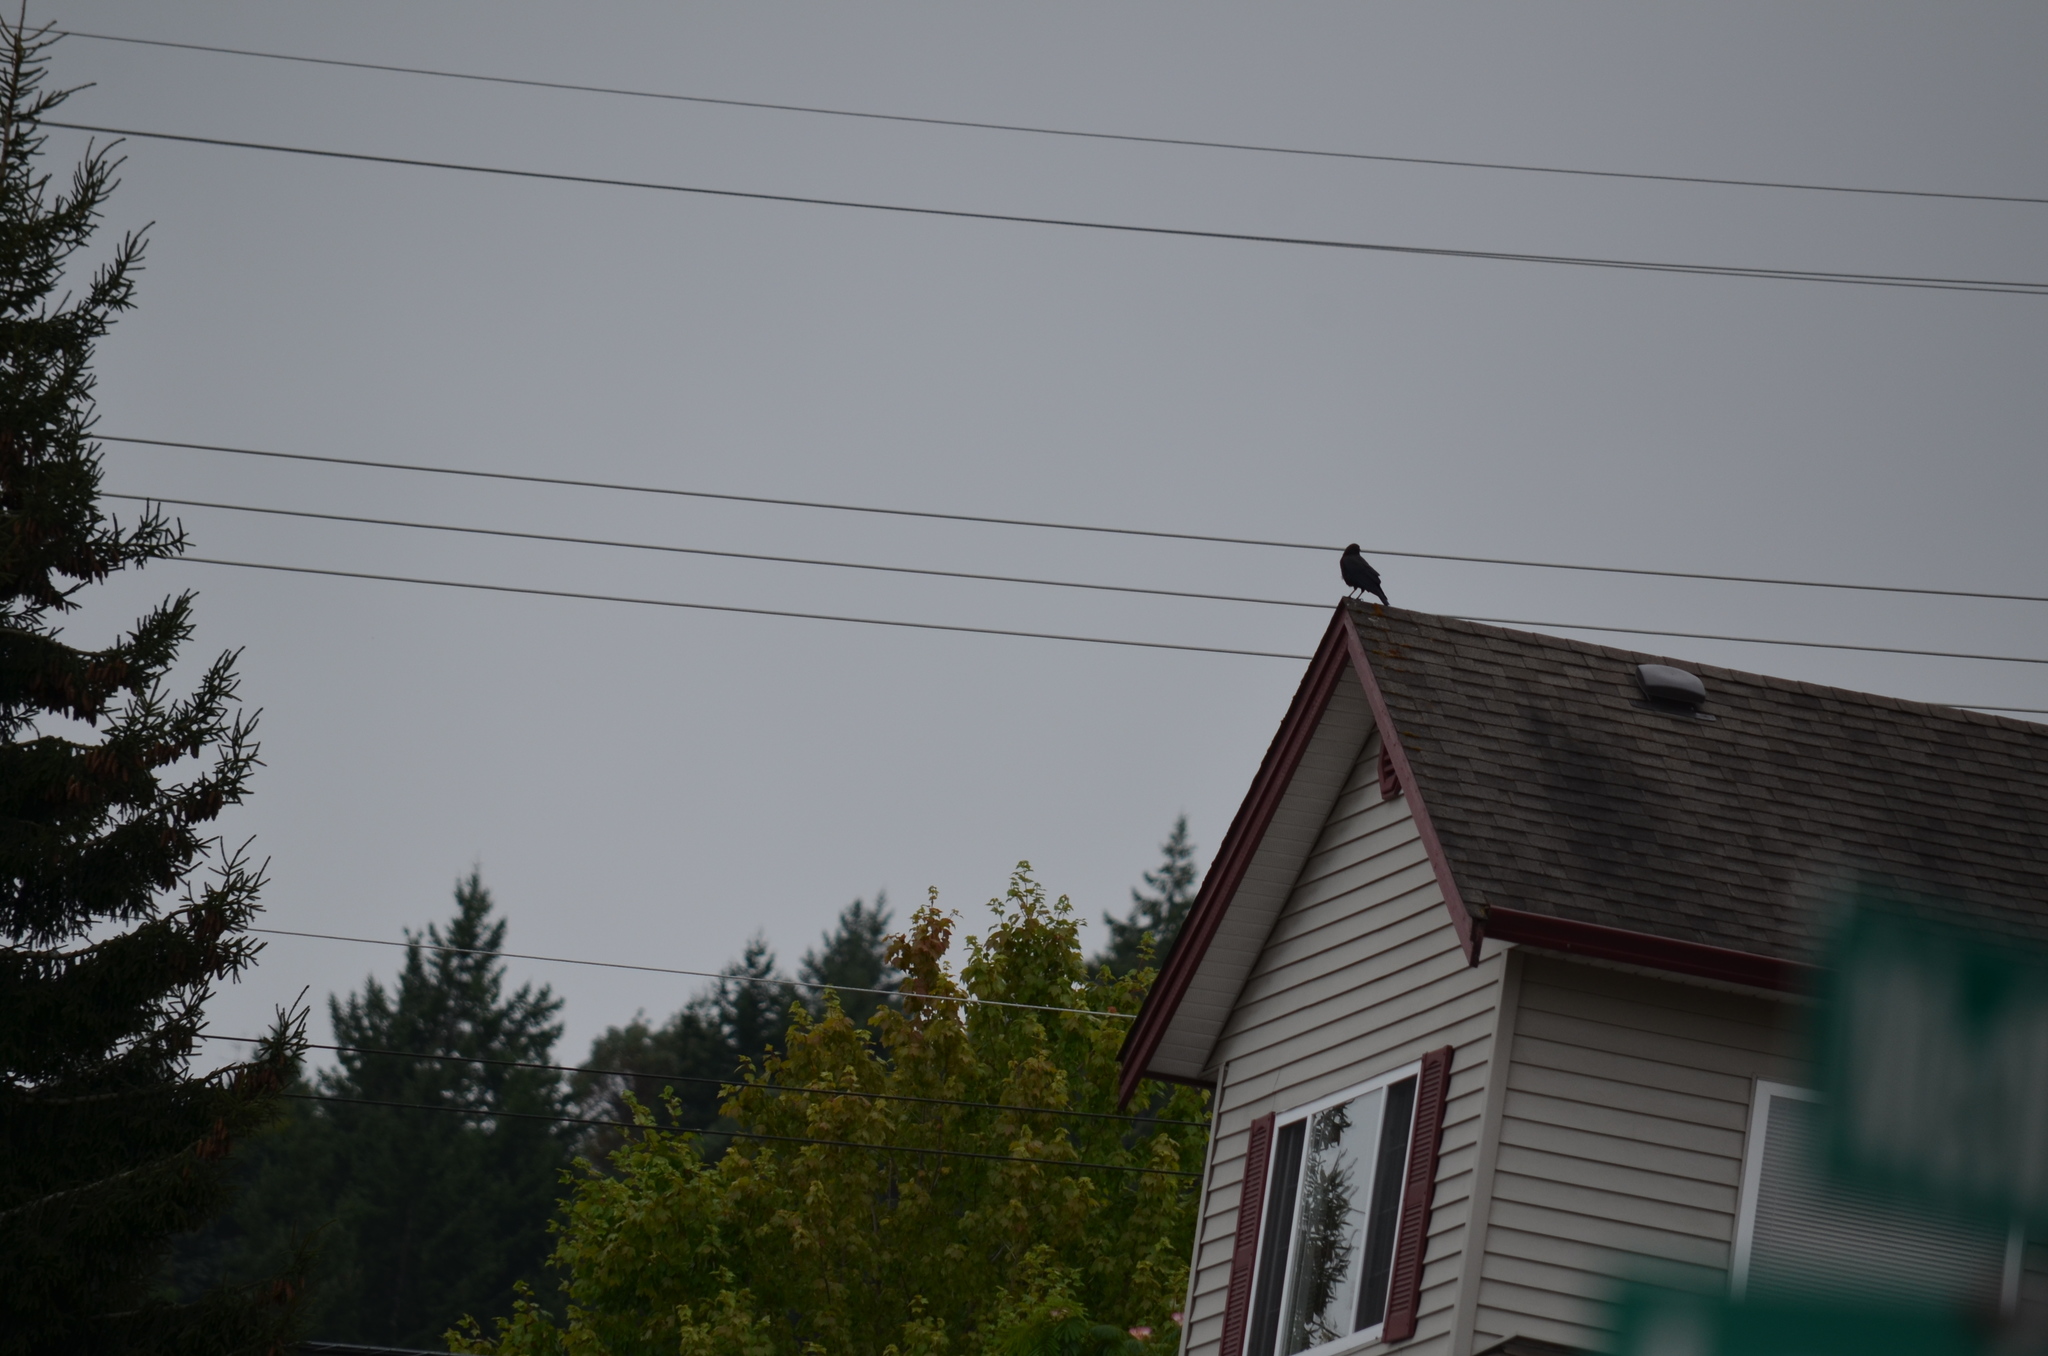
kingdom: Animalia
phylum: Chordata
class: Aves
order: Passeriformes
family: Corvidae
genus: Corvus
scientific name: Corvus brachyrhynchos
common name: American crow
